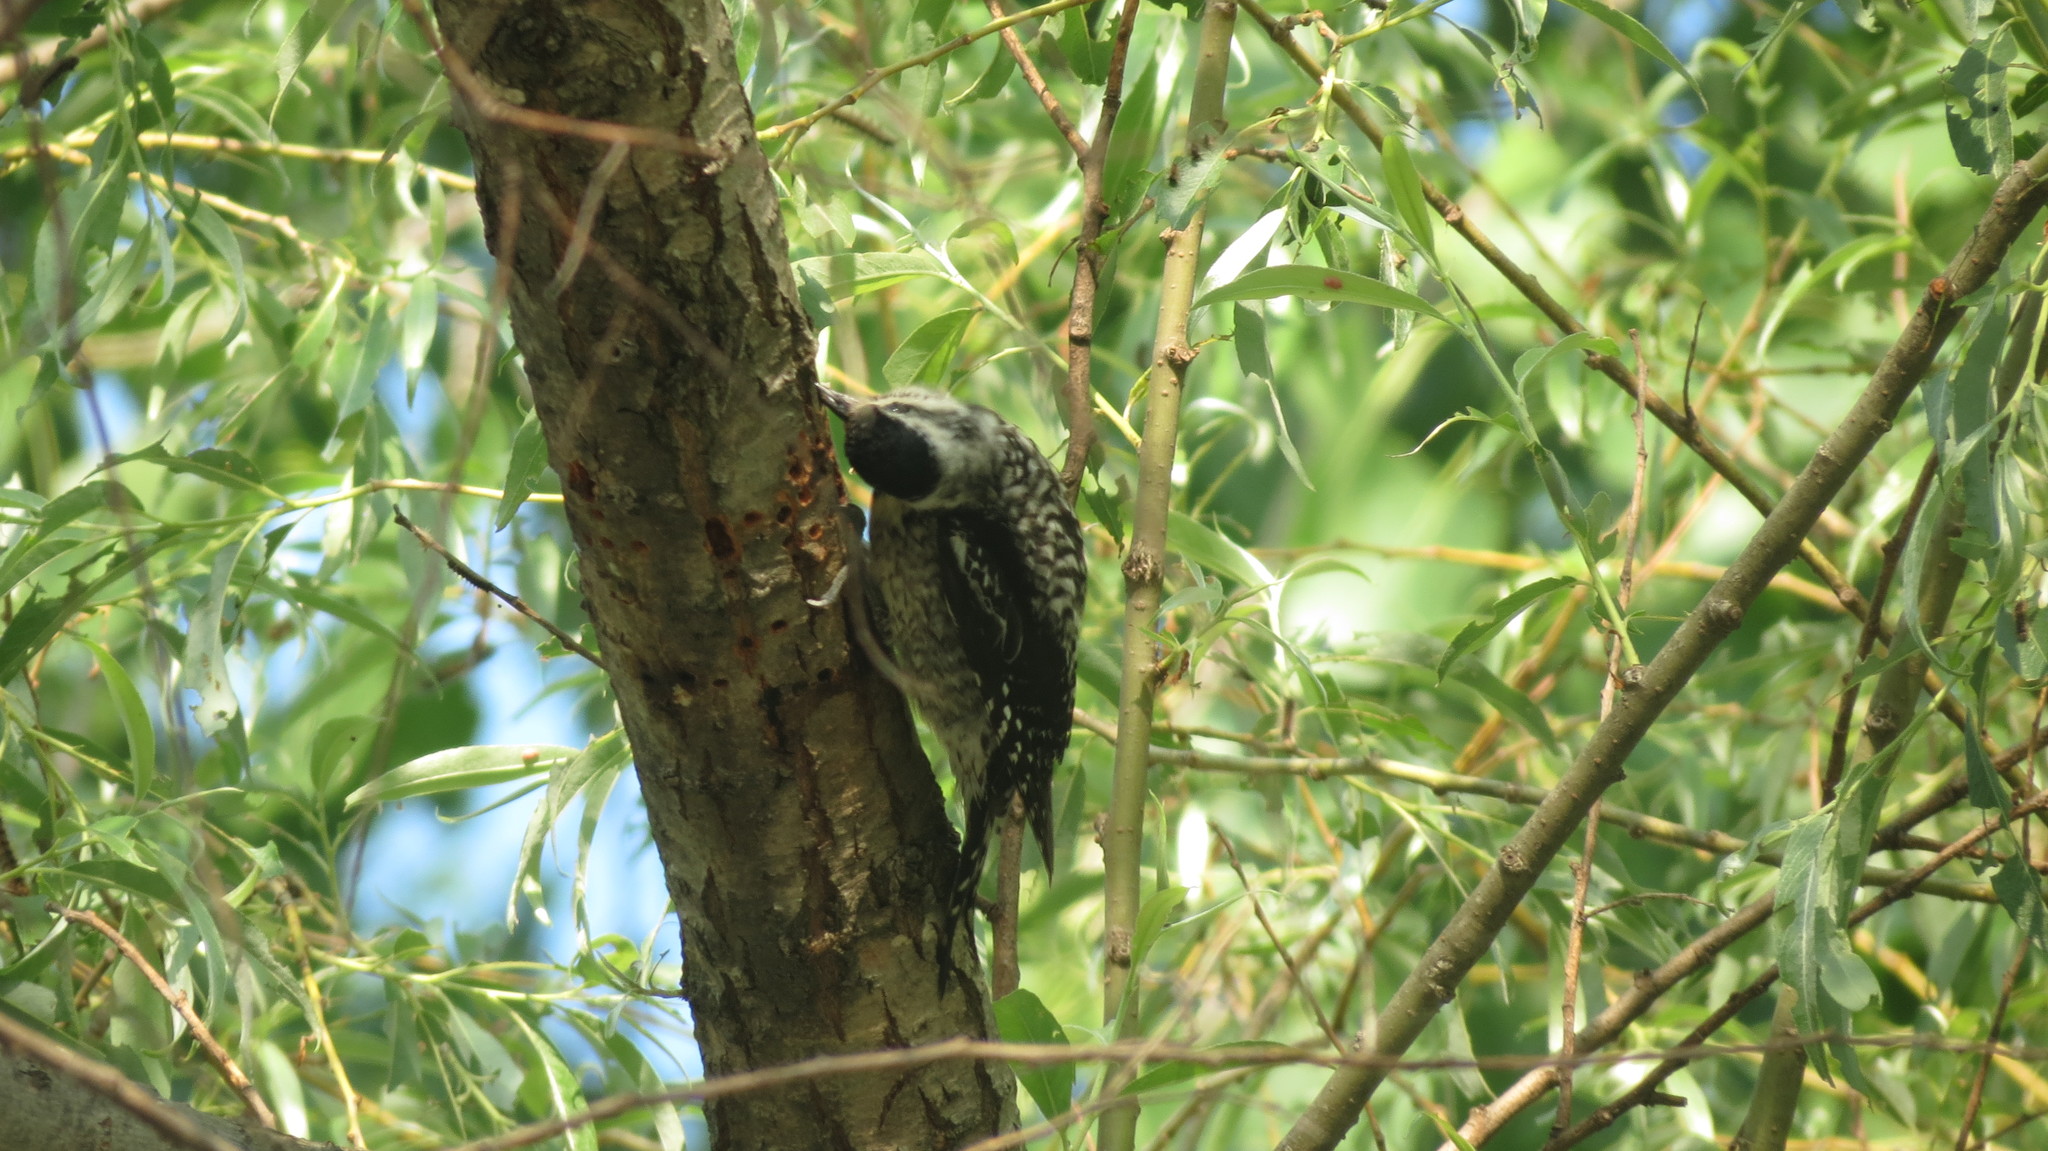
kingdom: Animalia
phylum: Chordata
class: Aves
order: Piciformes
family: Picidae
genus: Sphyrapicus
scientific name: Sphyrapicus varius
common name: Yellow-bellied sapsucker
